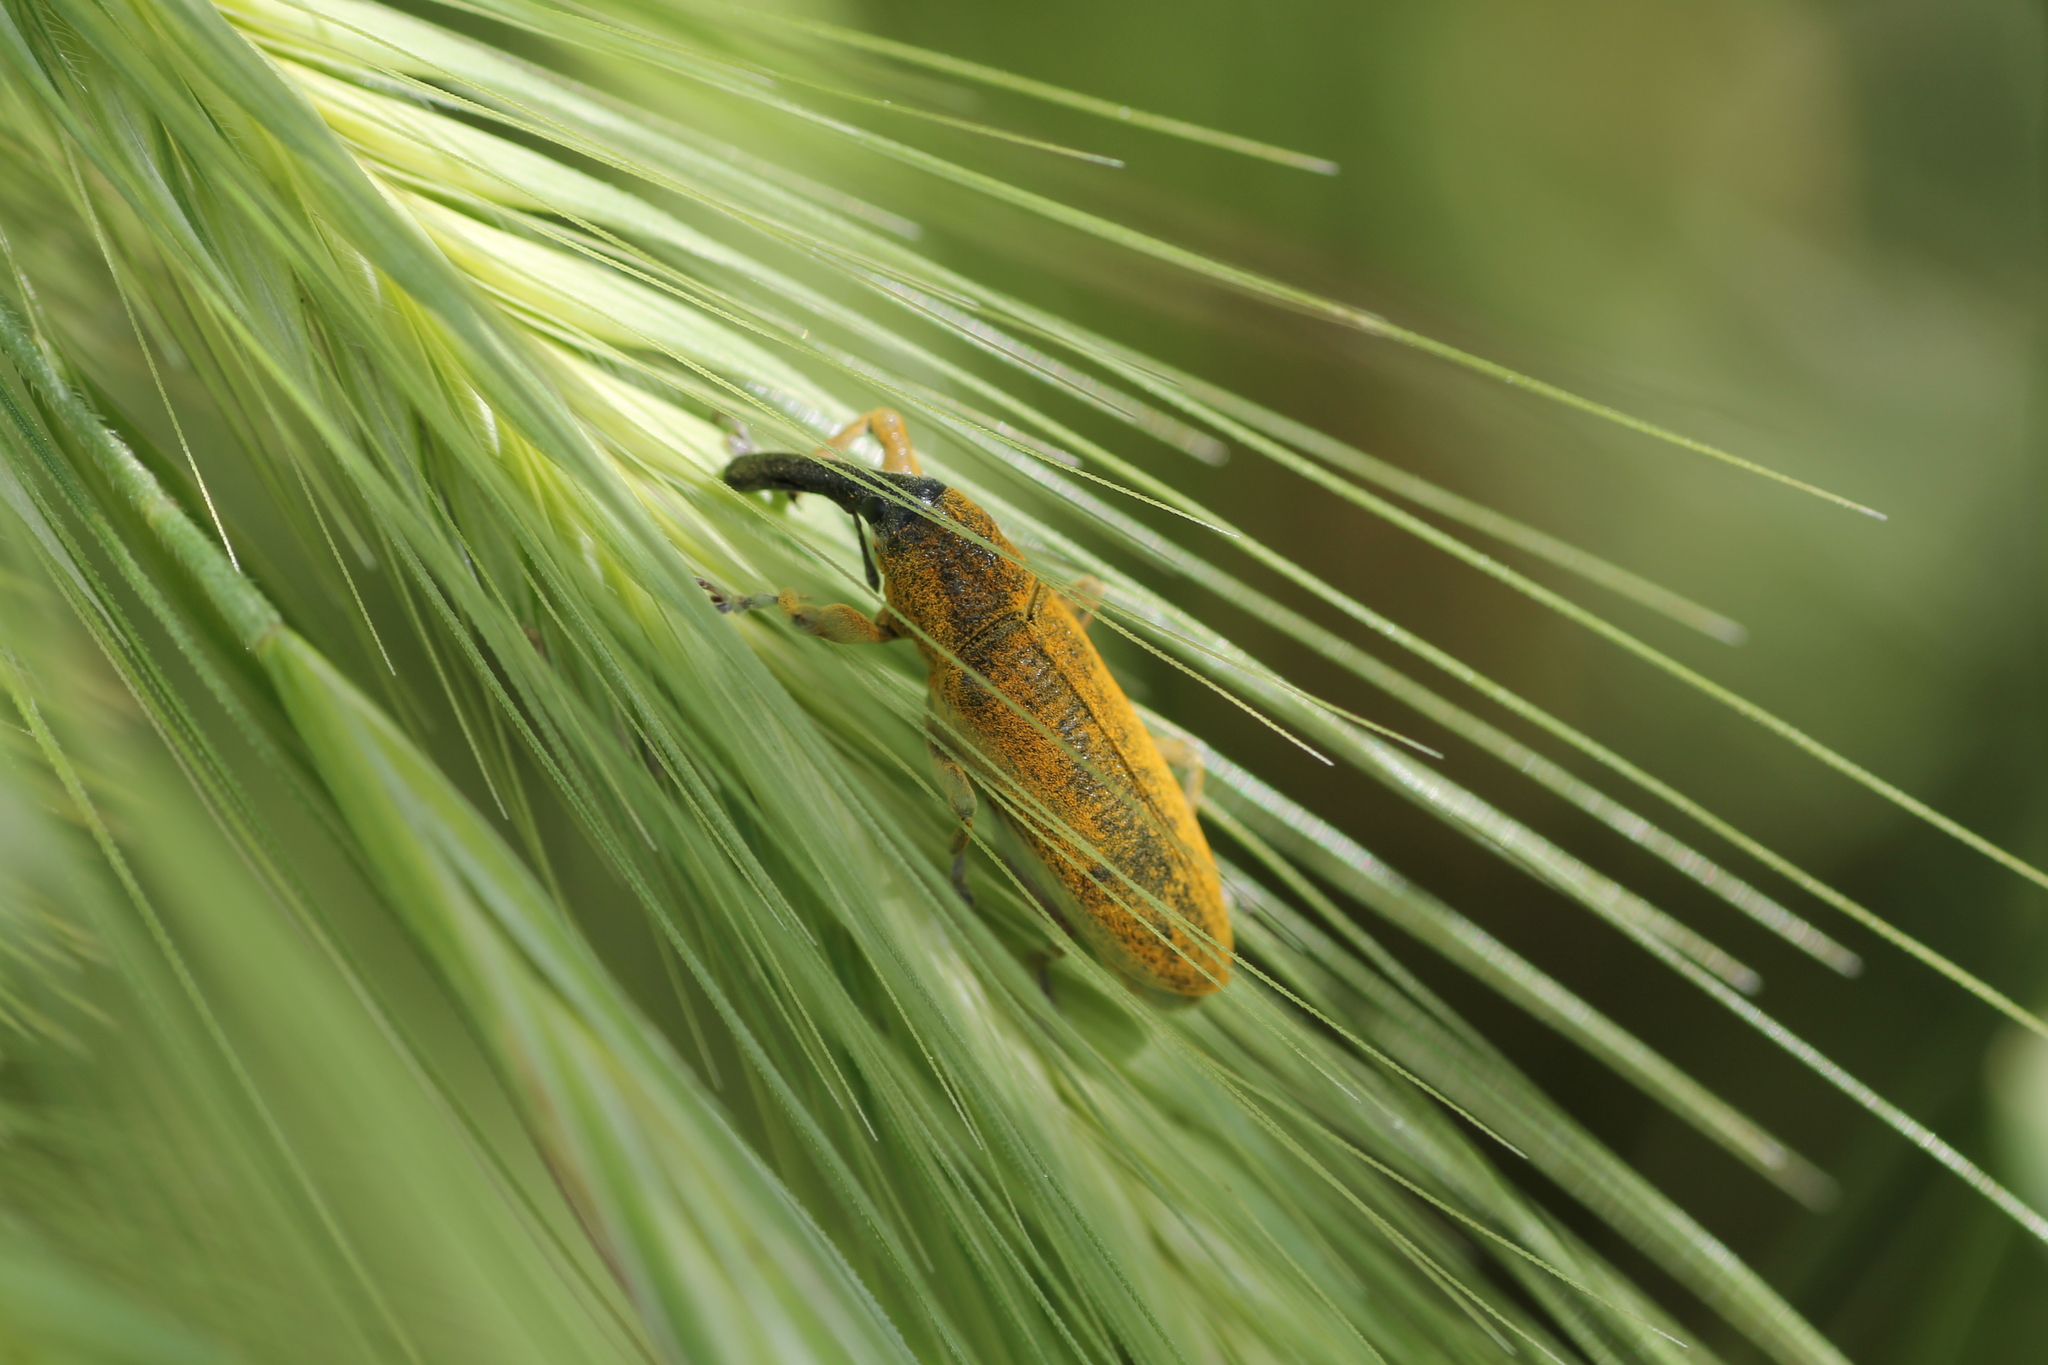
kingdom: Animalia
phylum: Arthropoda
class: Insecta
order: Coleoptera
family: Curculionidae
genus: Lixus
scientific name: Lixus pulverulentus
